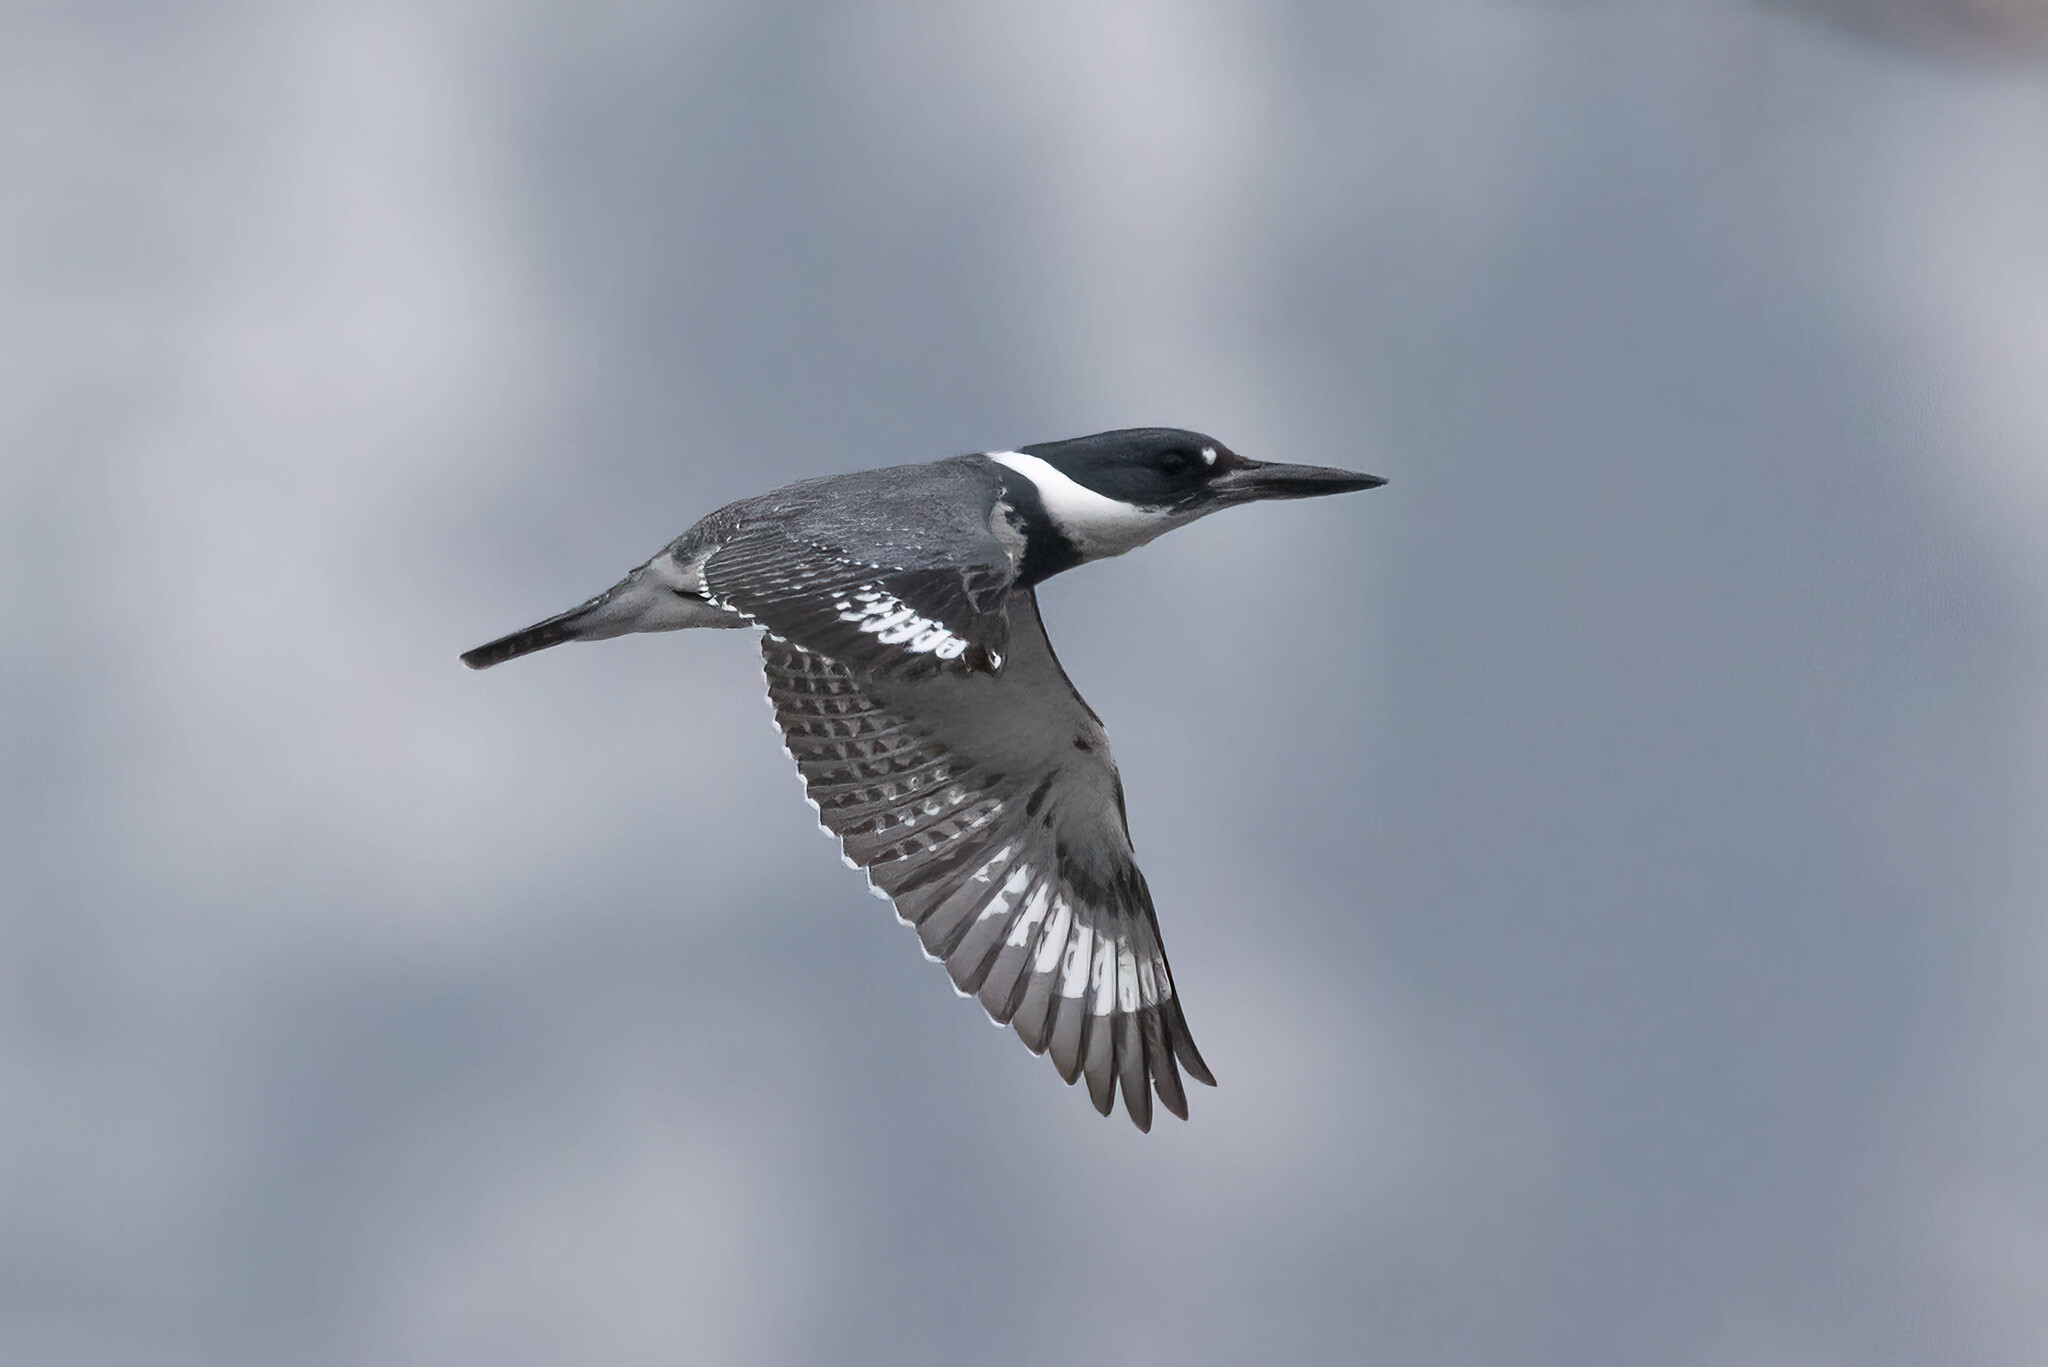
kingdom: Animalia
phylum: Chordata
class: Aves
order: Coraciiformes
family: Alcedinidae
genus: Megaceryle
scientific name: Megaceryle alcyon
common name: Belted kingfisher
